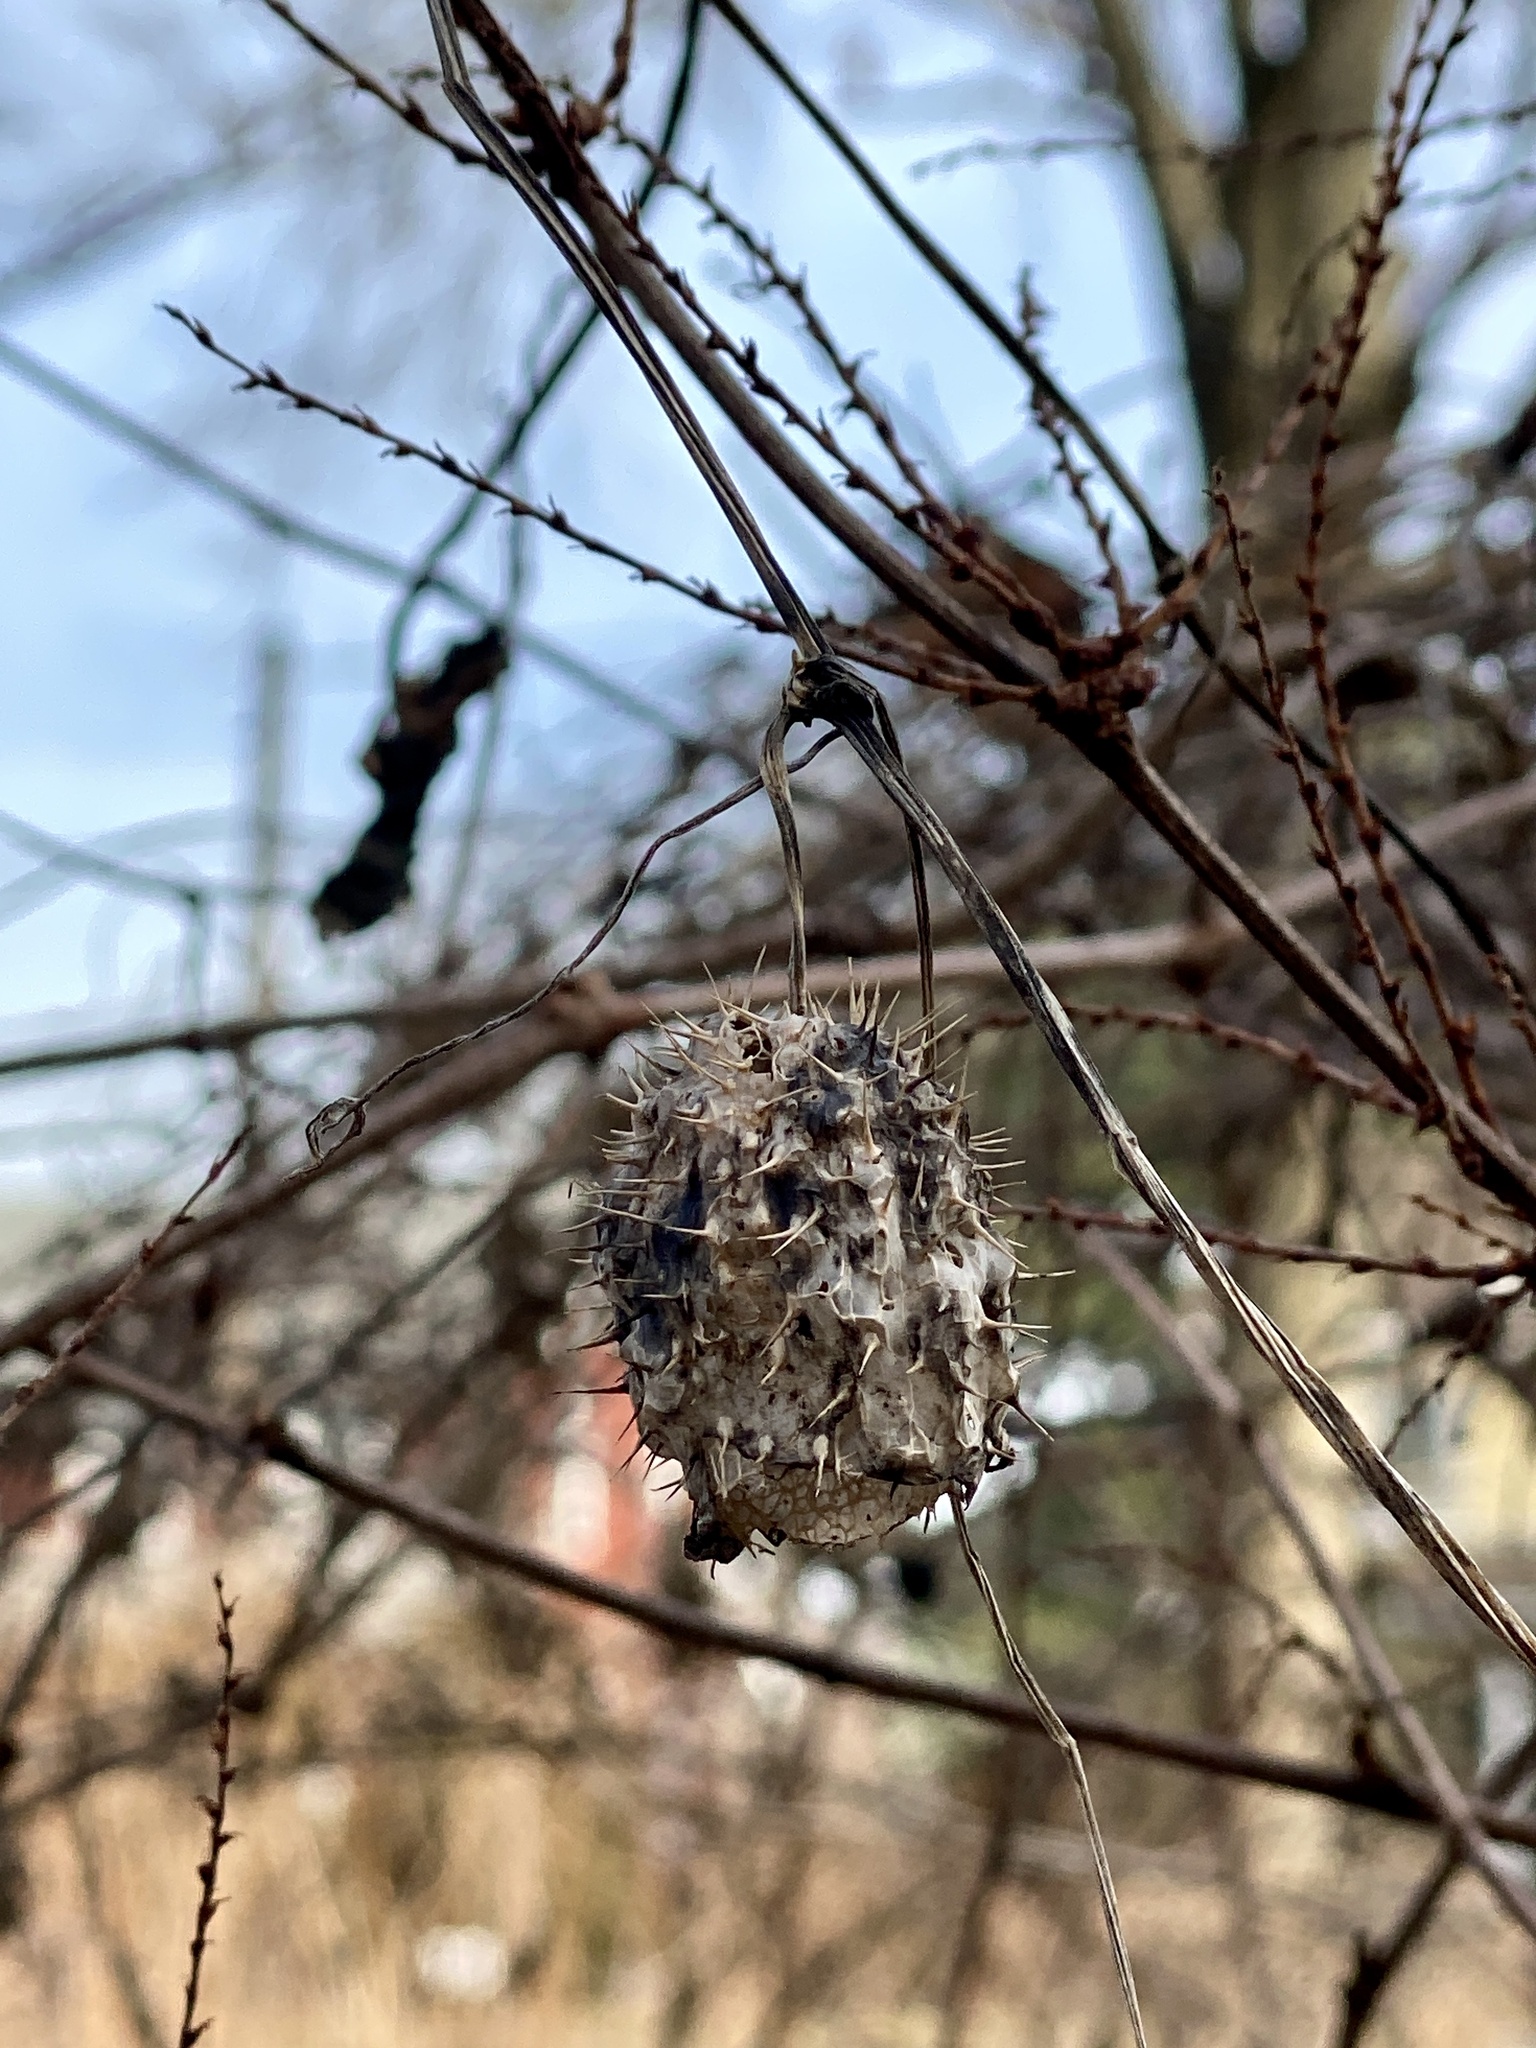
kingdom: Plantae
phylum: Tracheophyta
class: Magnoliopsida
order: Cucurbitales
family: Cucurbitaceae
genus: Echinocystis
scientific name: Echinocystis lobata
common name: Wild cucumber
